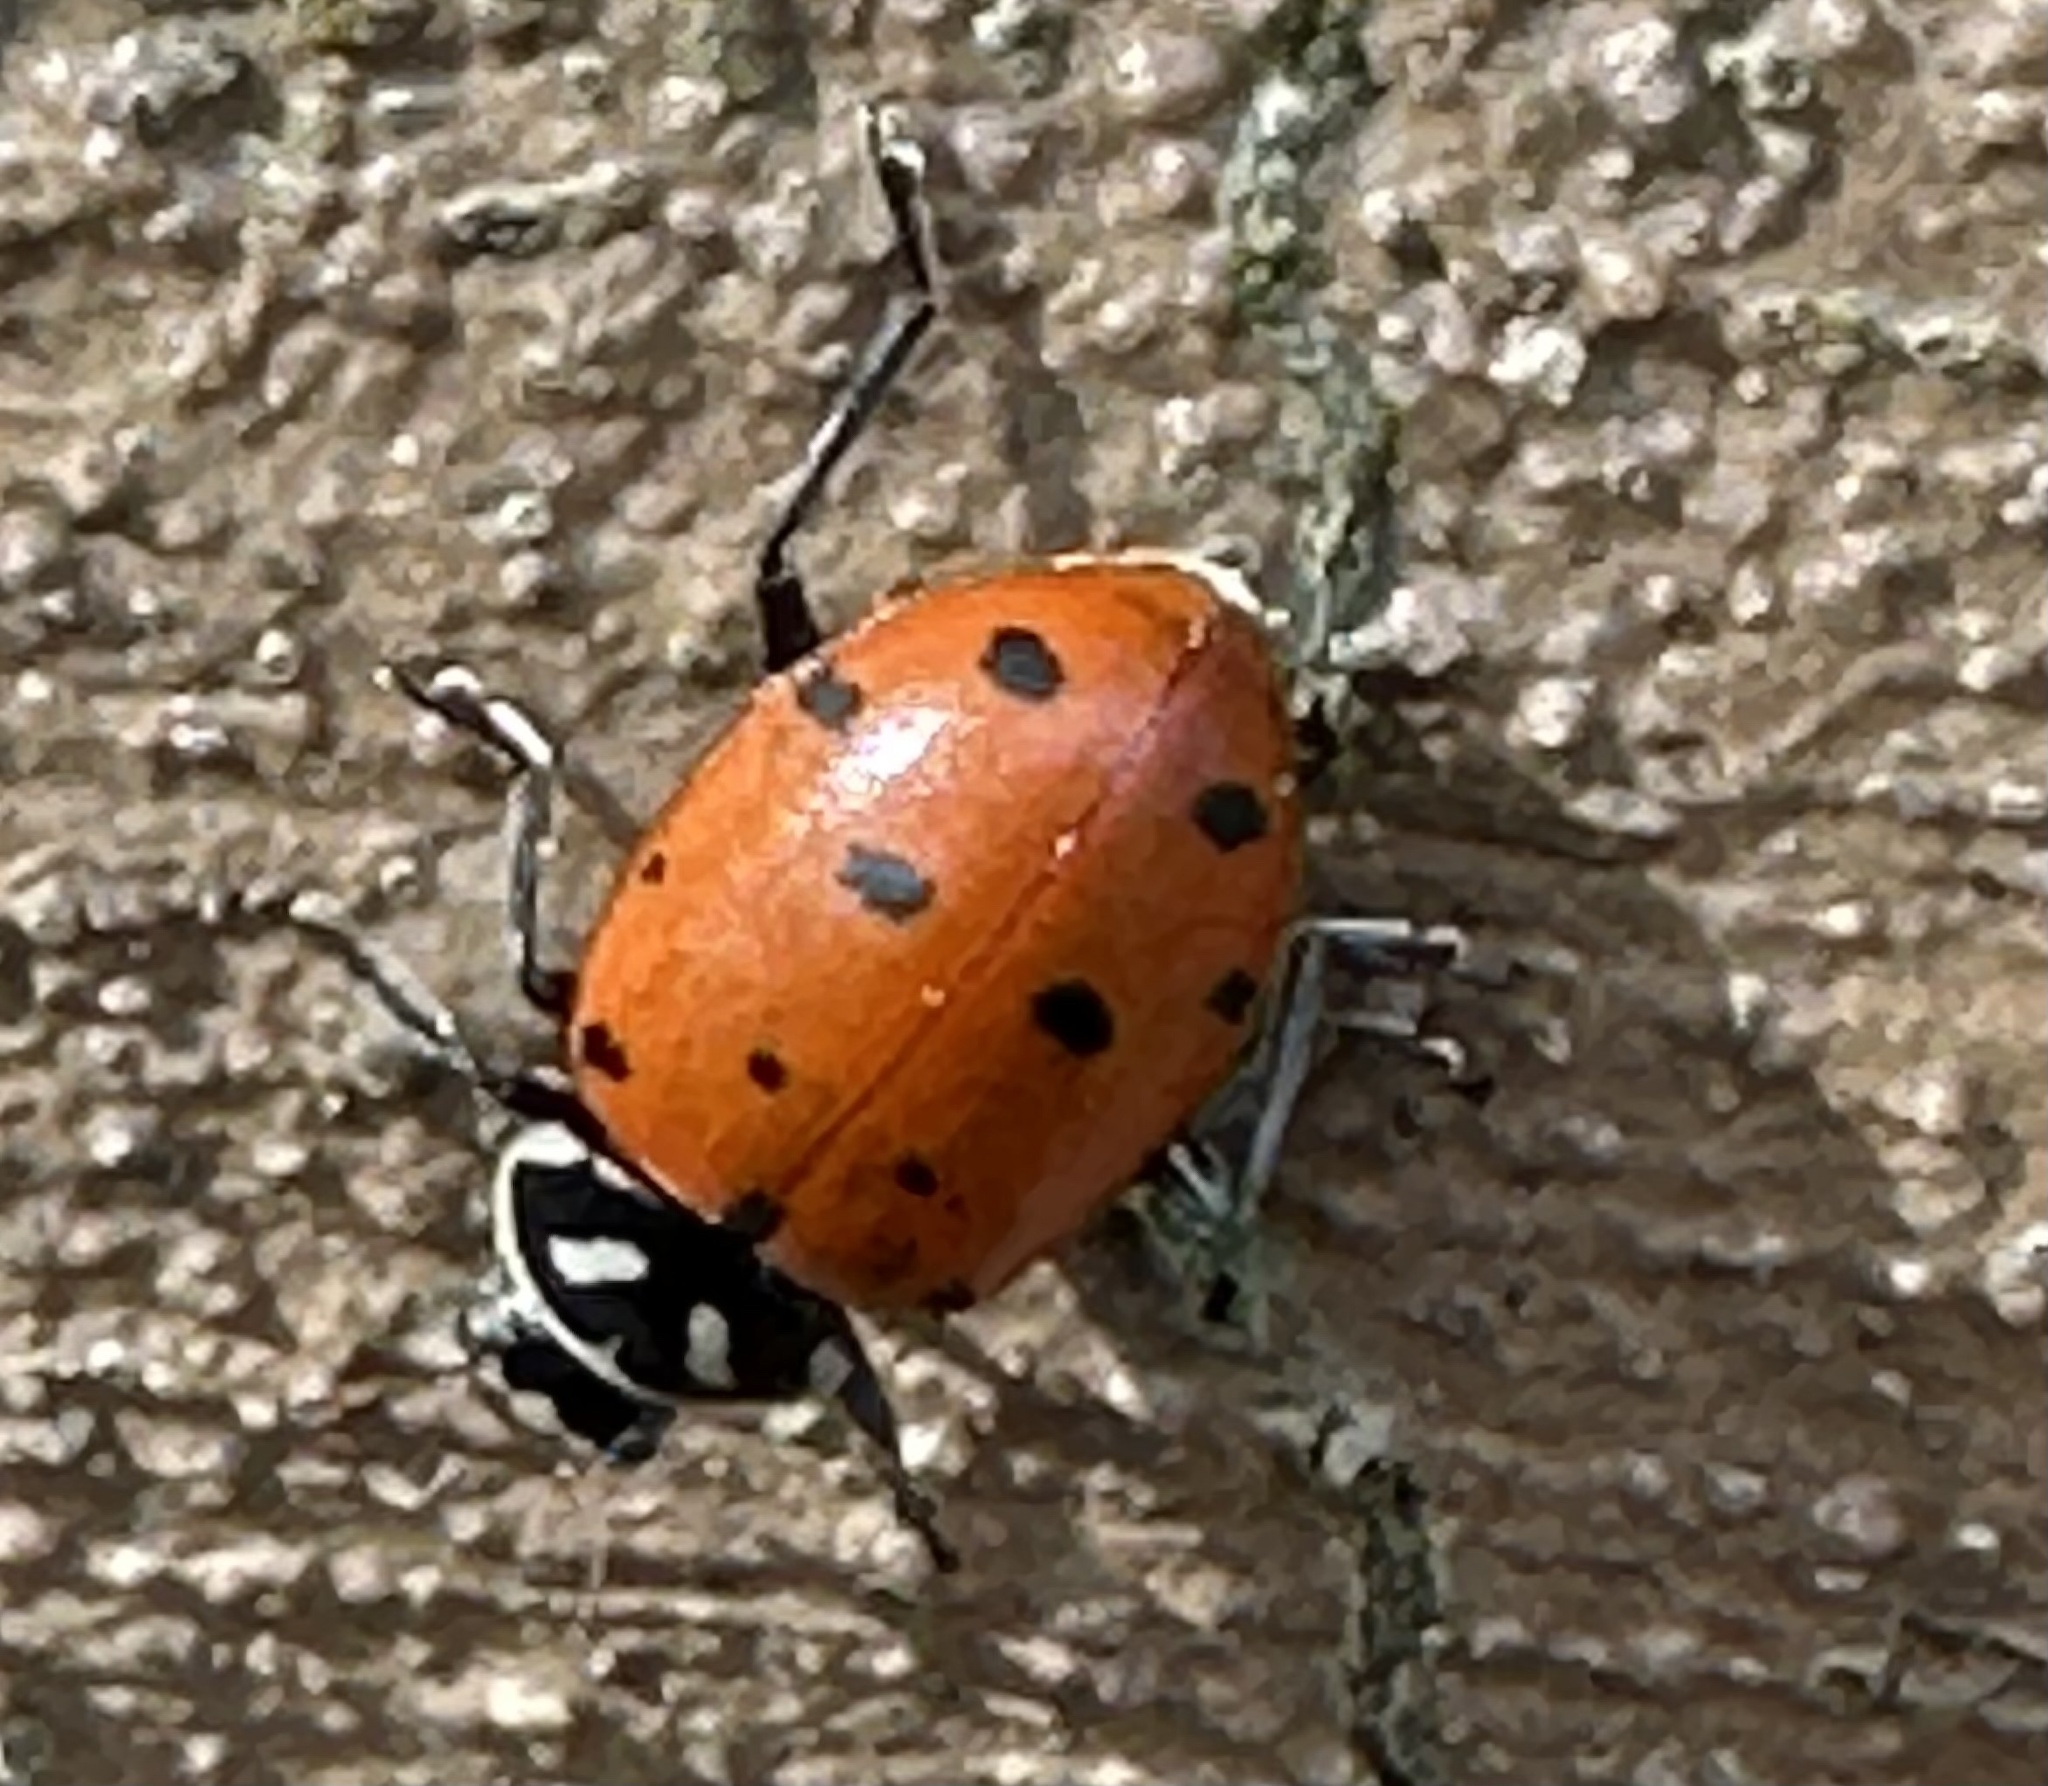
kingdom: Animalia
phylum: Arthropoda
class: Insecta
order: Coleoptera
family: Coccinellidae
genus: Hippodamia
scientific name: Hippodamia convergens
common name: Convergent lady beetle
